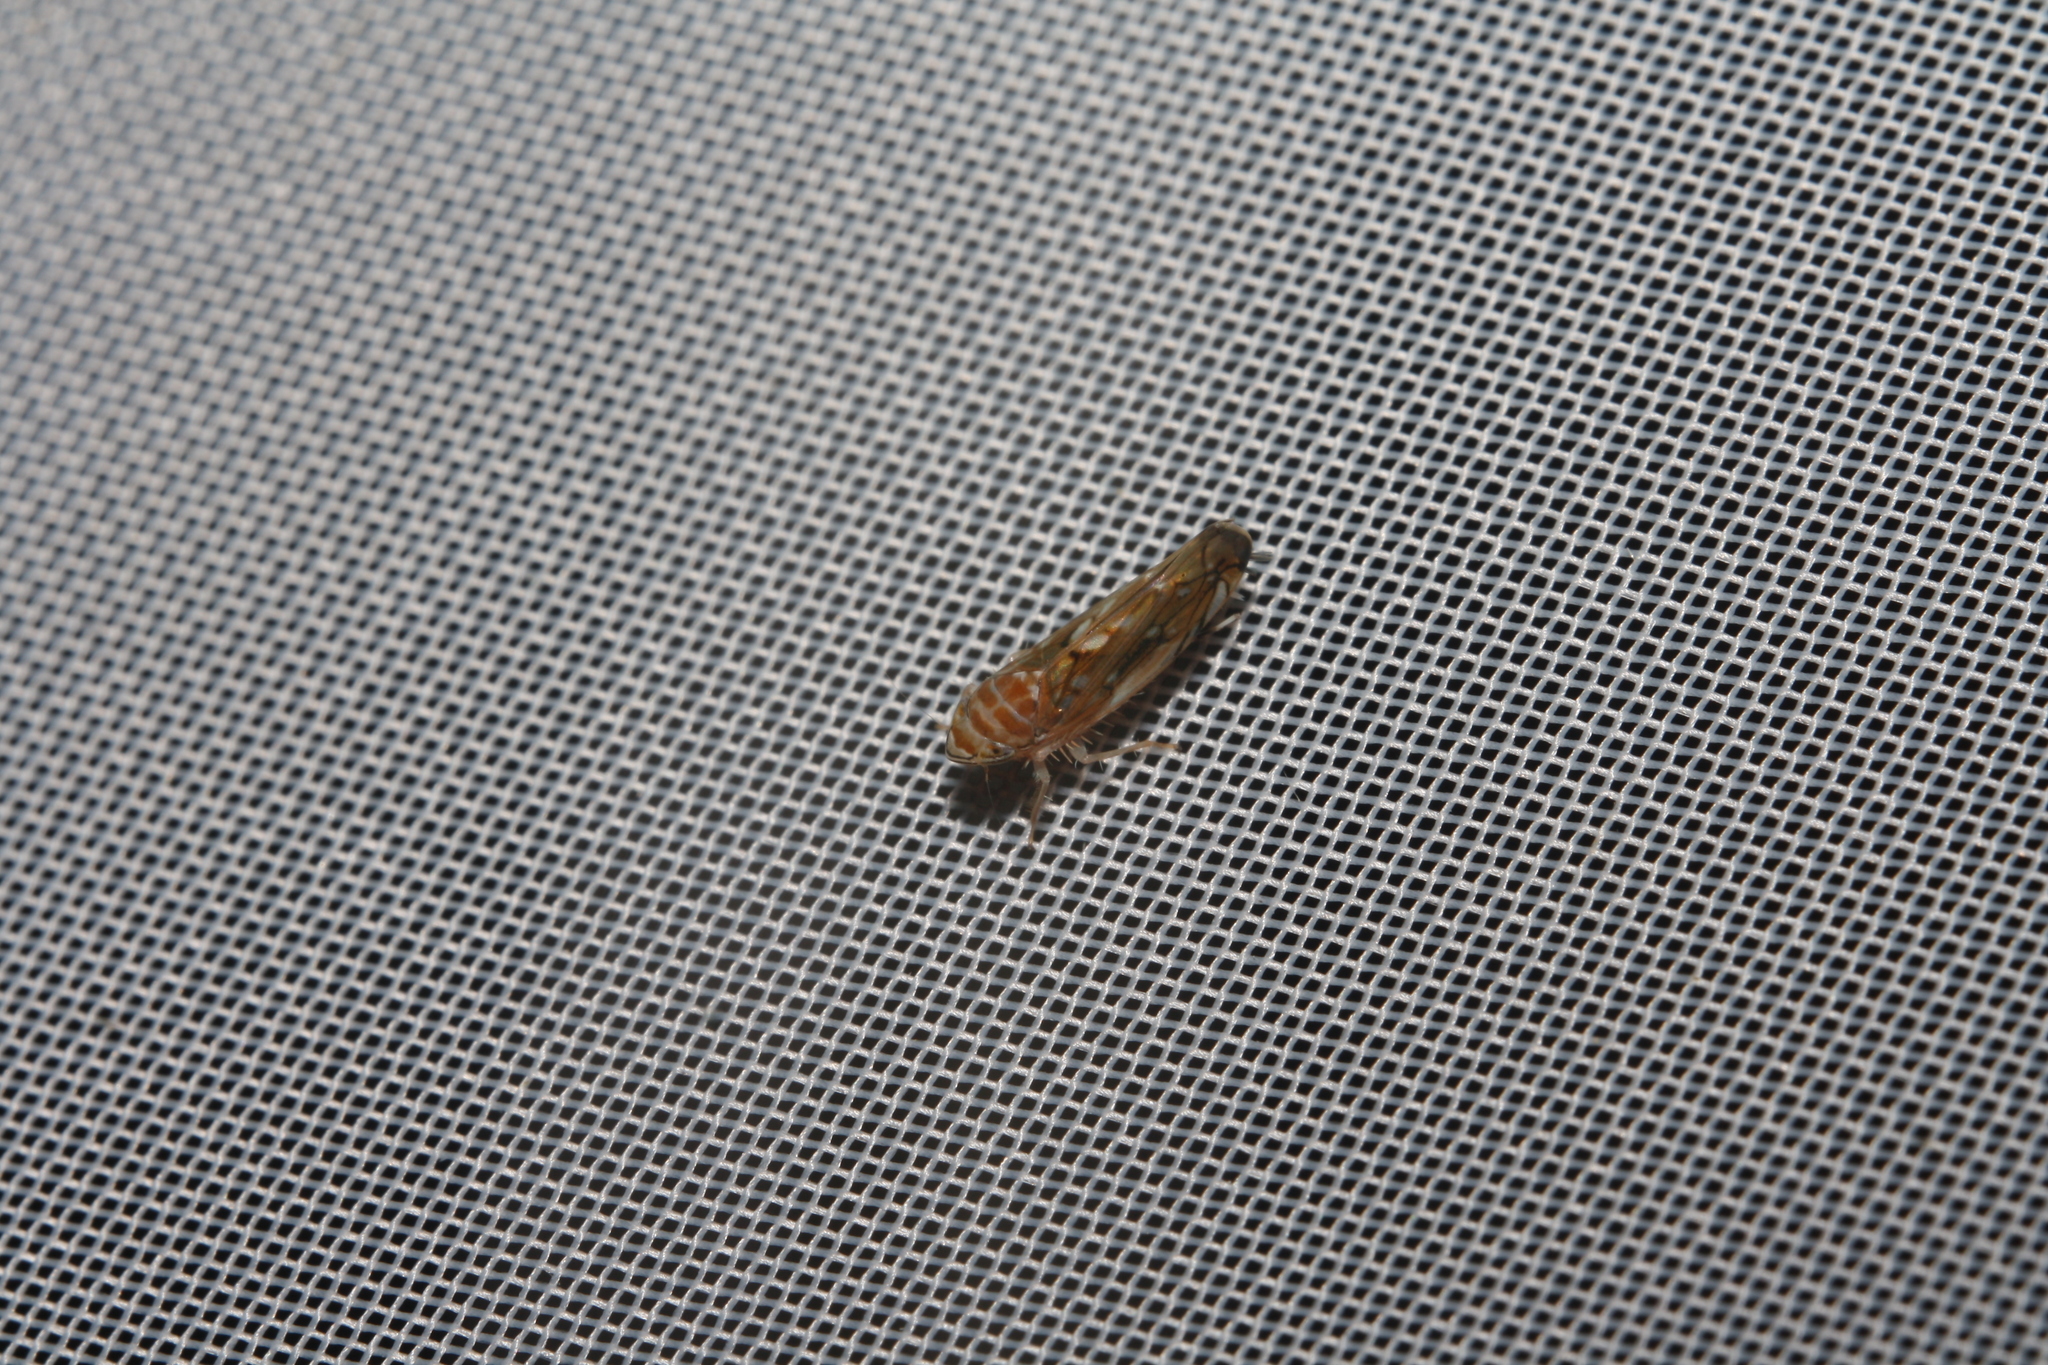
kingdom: Animalia
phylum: Arthropoda
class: Insecta
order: Hemiptera
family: Cicadellidae
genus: Scaphoideus
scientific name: Scaphoideus titanus
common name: American grapevine leafhopper
